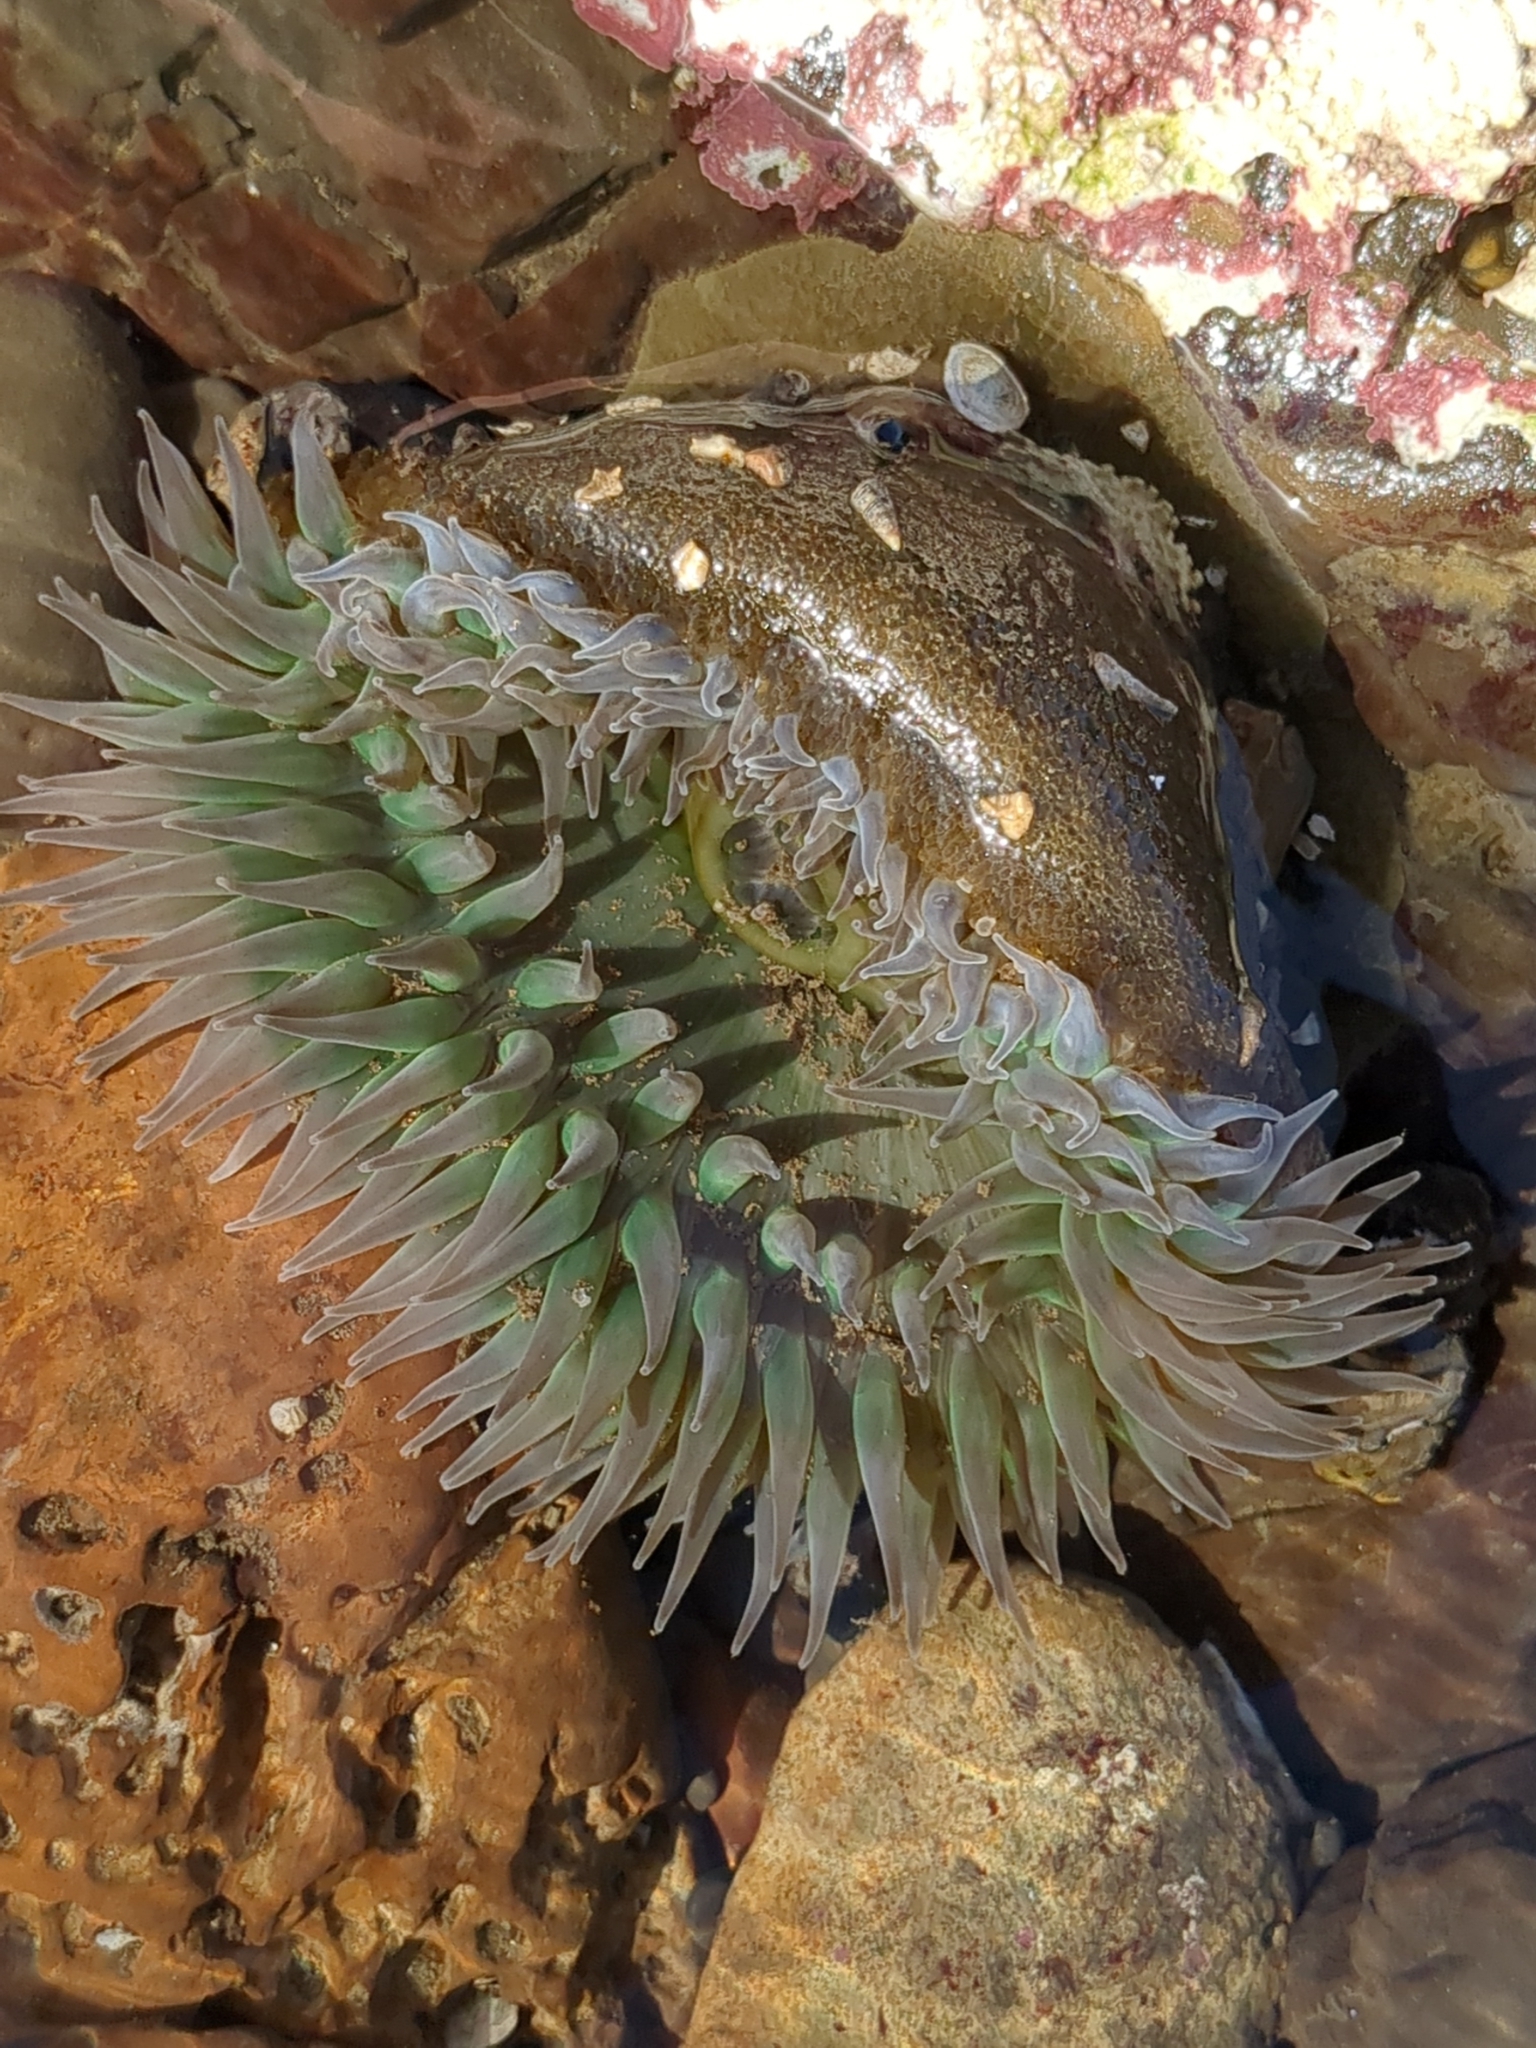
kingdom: Animalia
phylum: Cnidaria
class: Anthozoa
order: Actiniaria
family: Actiniidae
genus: Anthopleura
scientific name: Anthopleura xanthogrammica
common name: Giant green anemone
